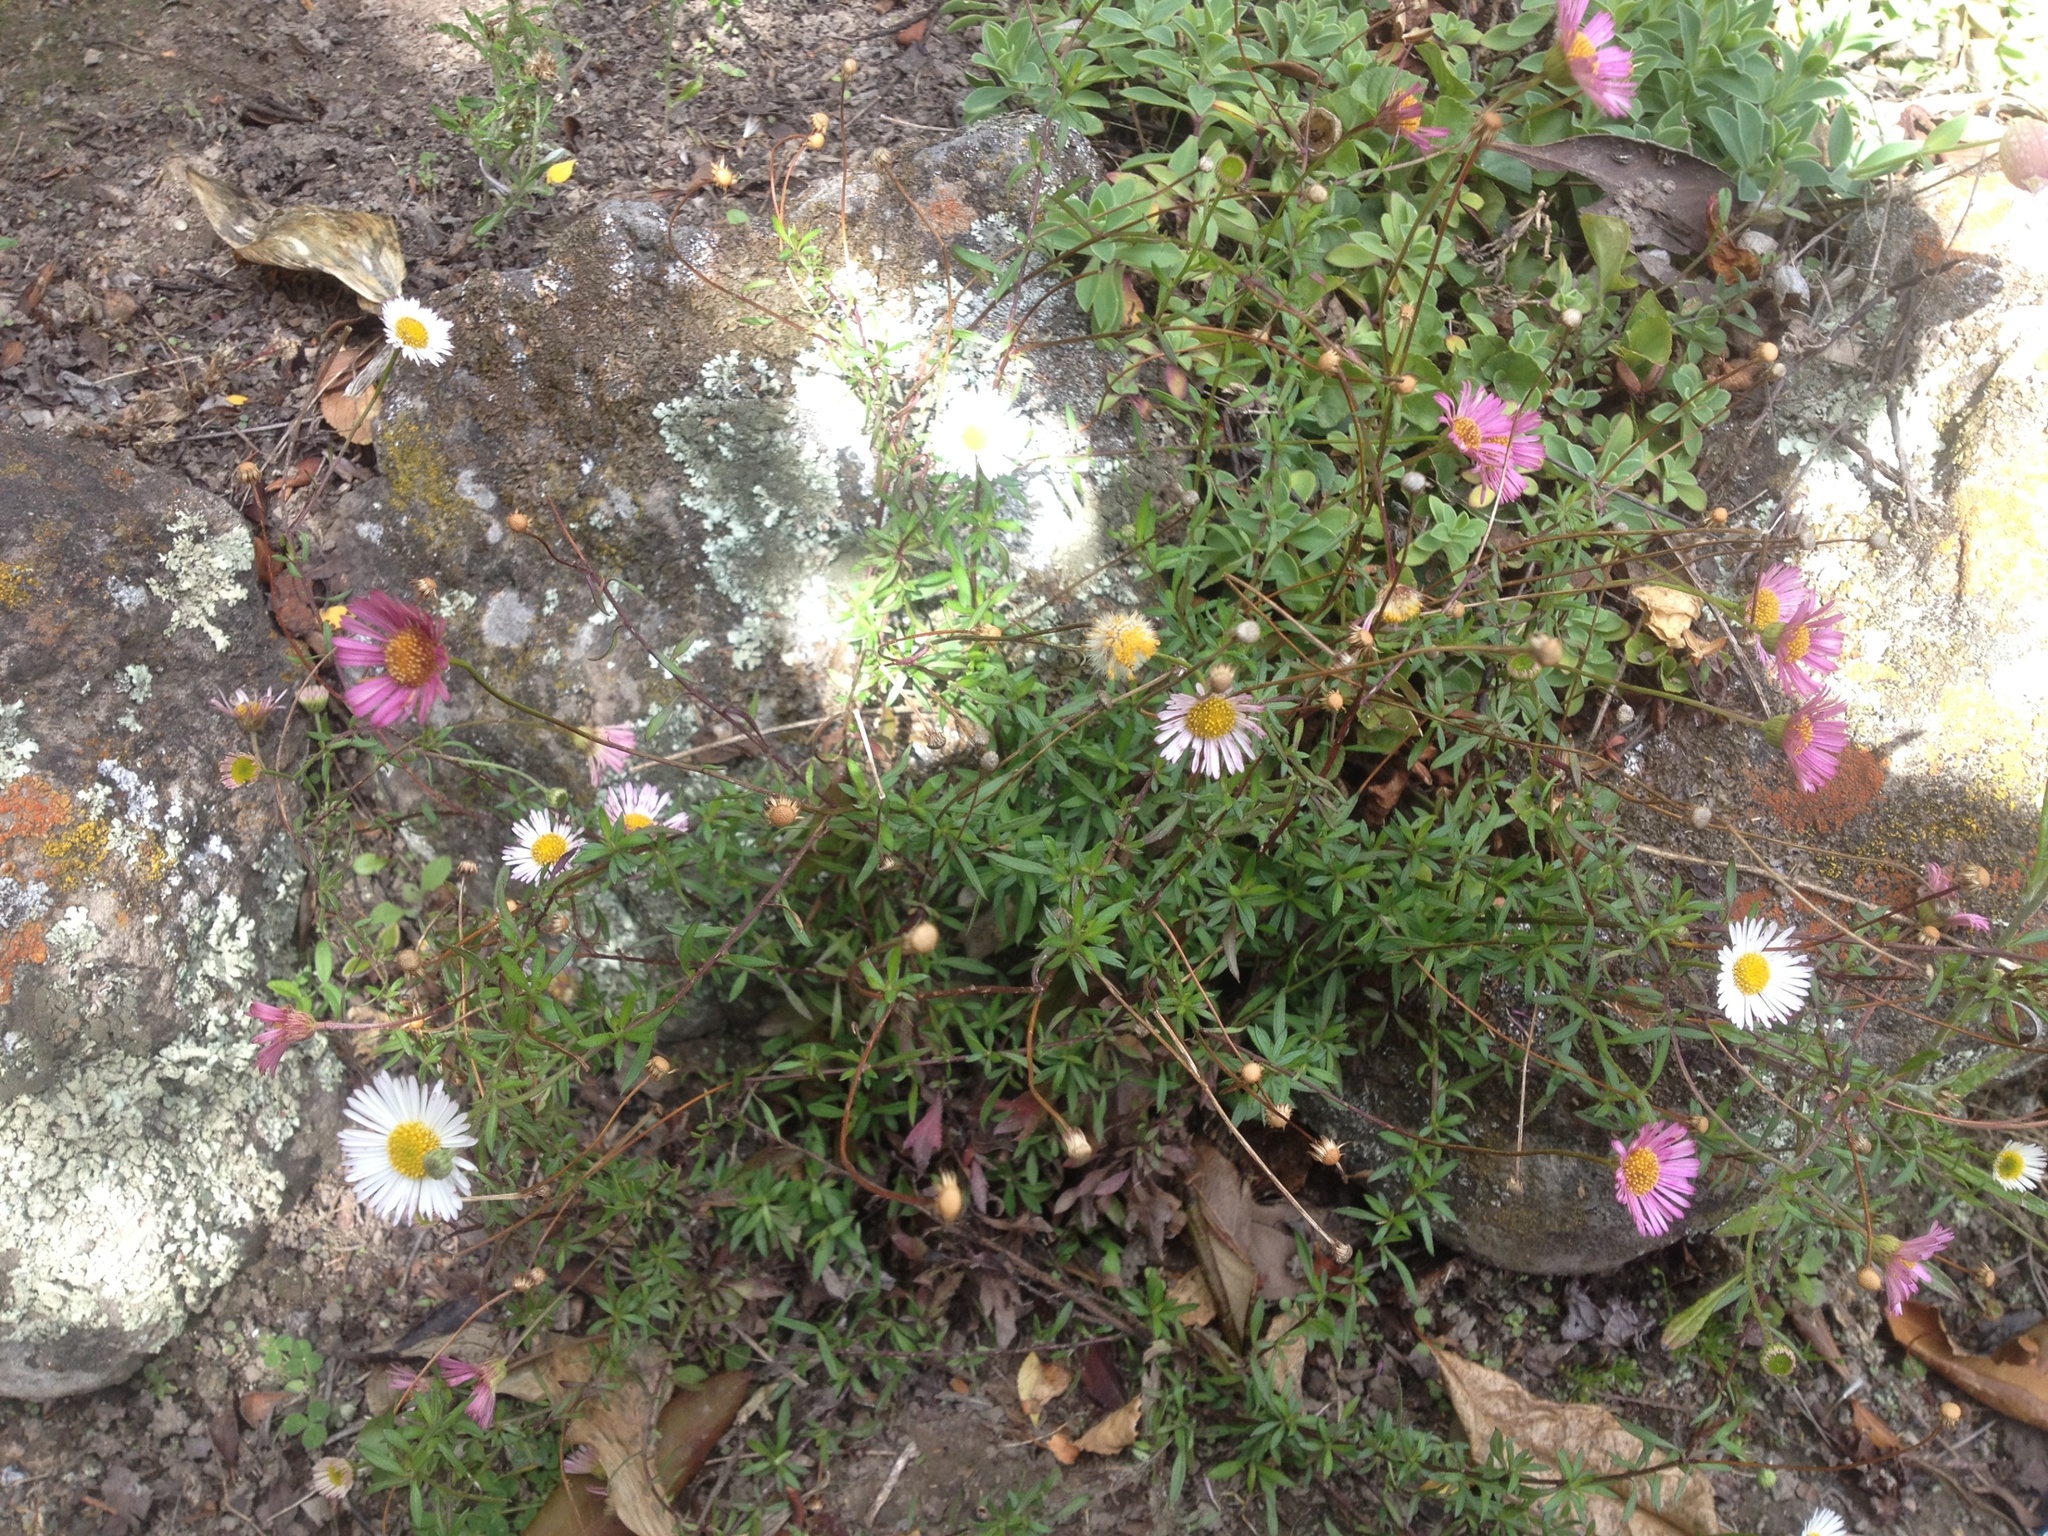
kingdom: Plantae
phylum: Tracheophyta
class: Magnoliopsida
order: Asterales
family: Asteraceae
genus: Erigeron
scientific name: Erigeron karvinskianus
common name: Mexican fleabane
